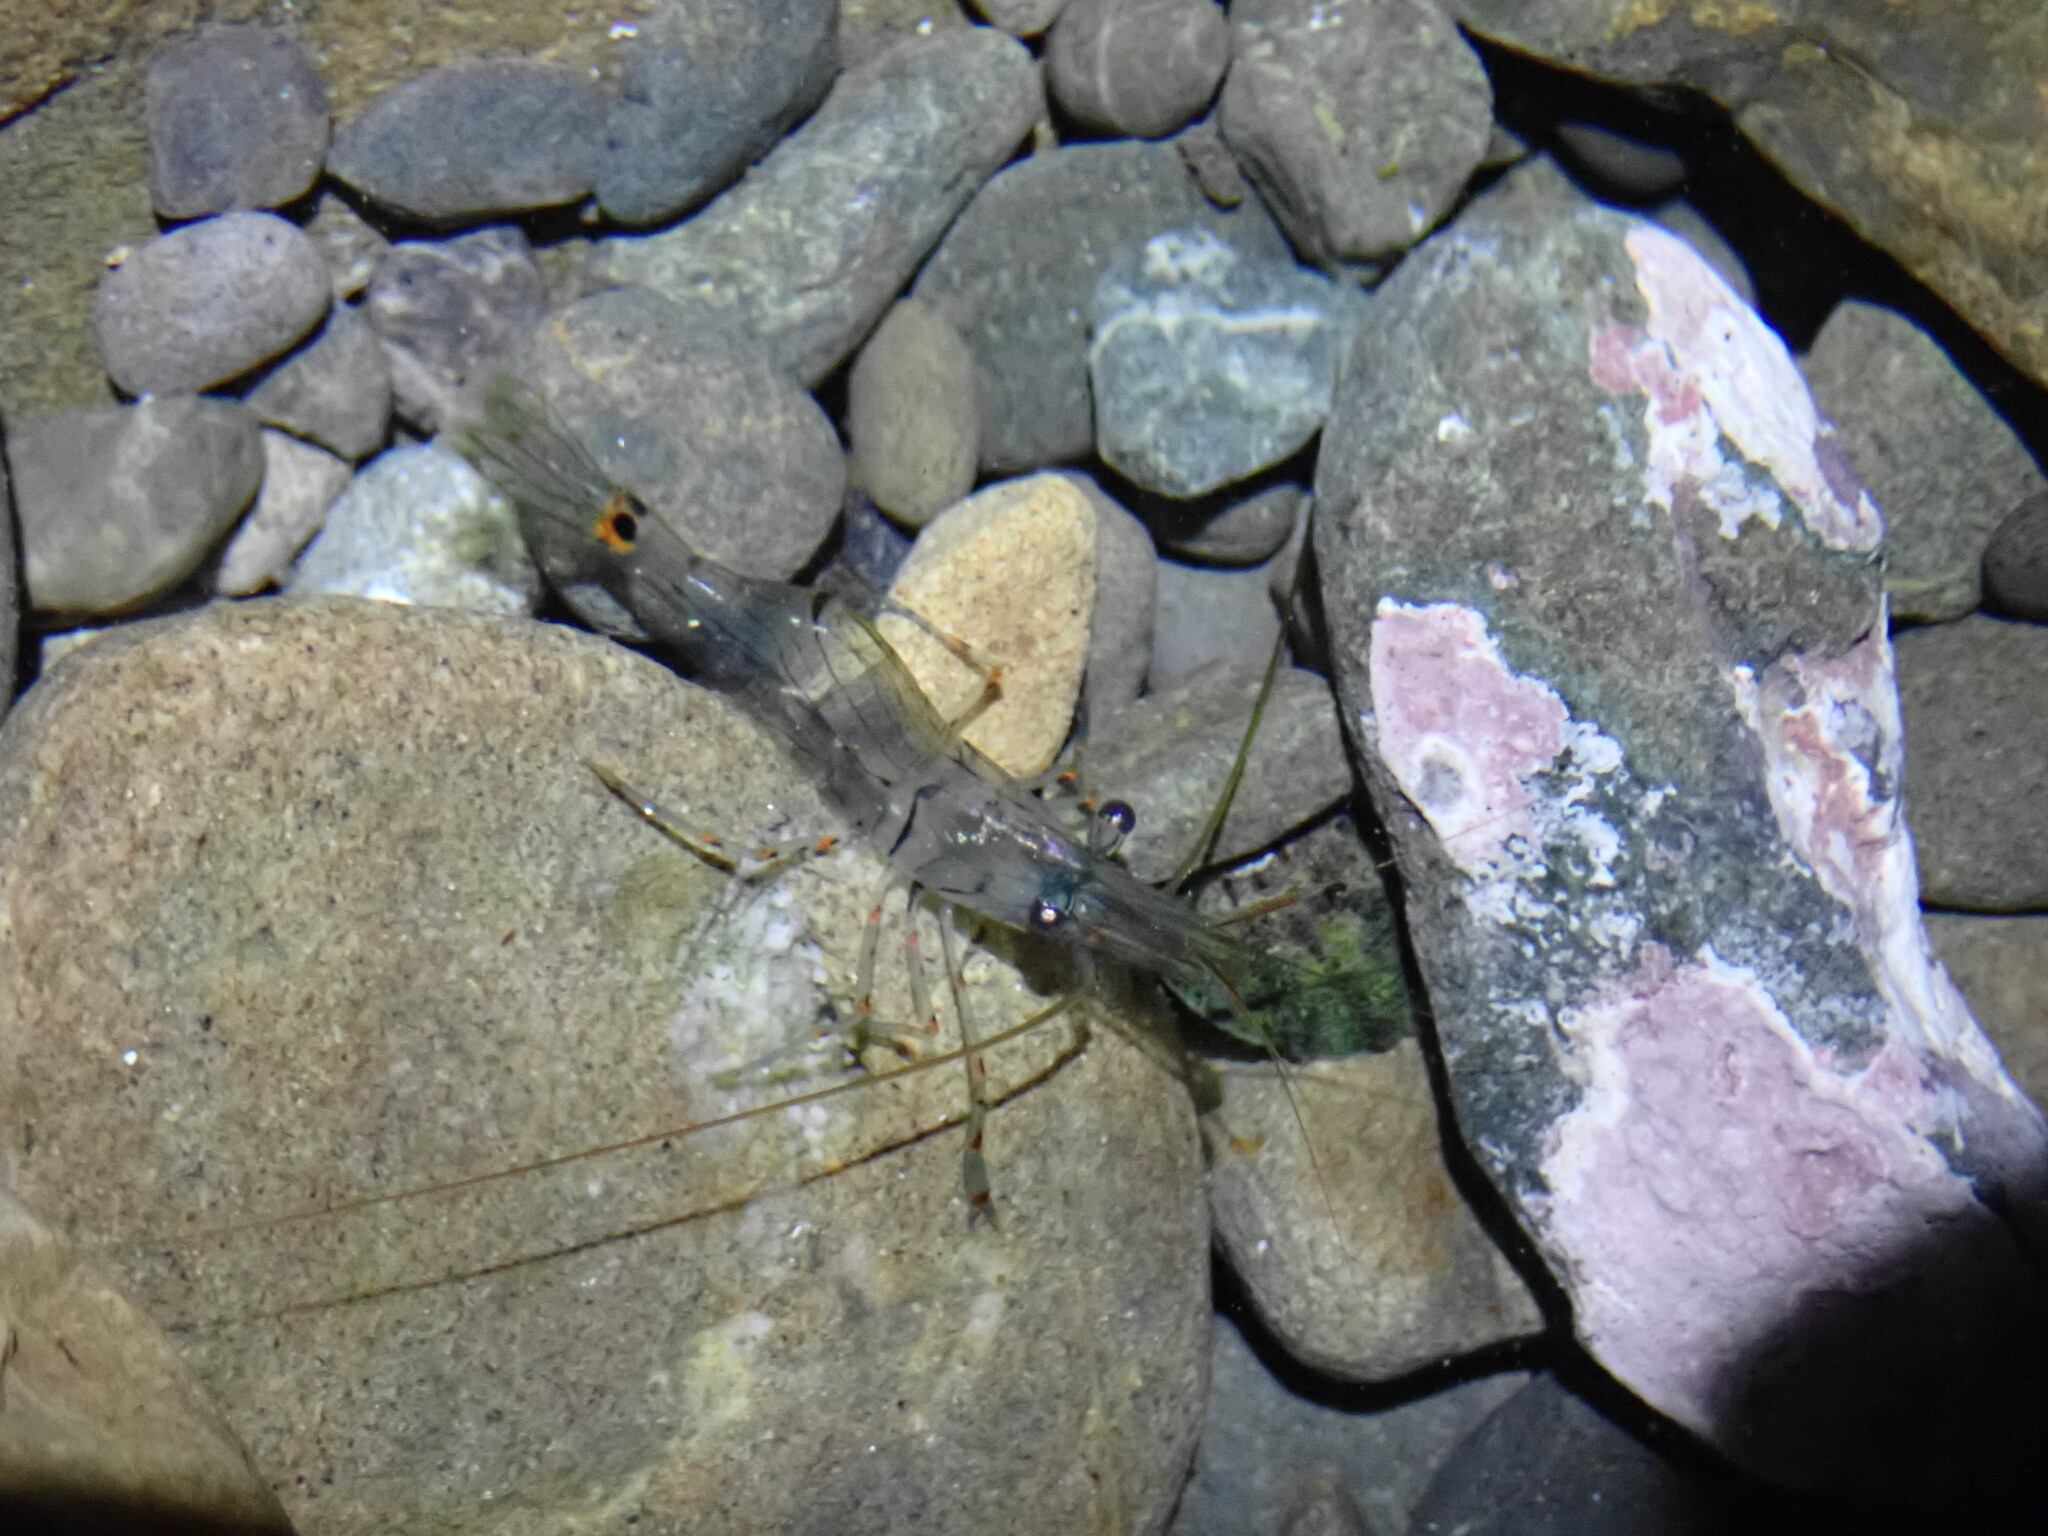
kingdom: Animalia
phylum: Arthropoda
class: Malacostraca
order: Decapoda
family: Palaemonidae
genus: Palaemon
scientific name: Palaemon affinis
